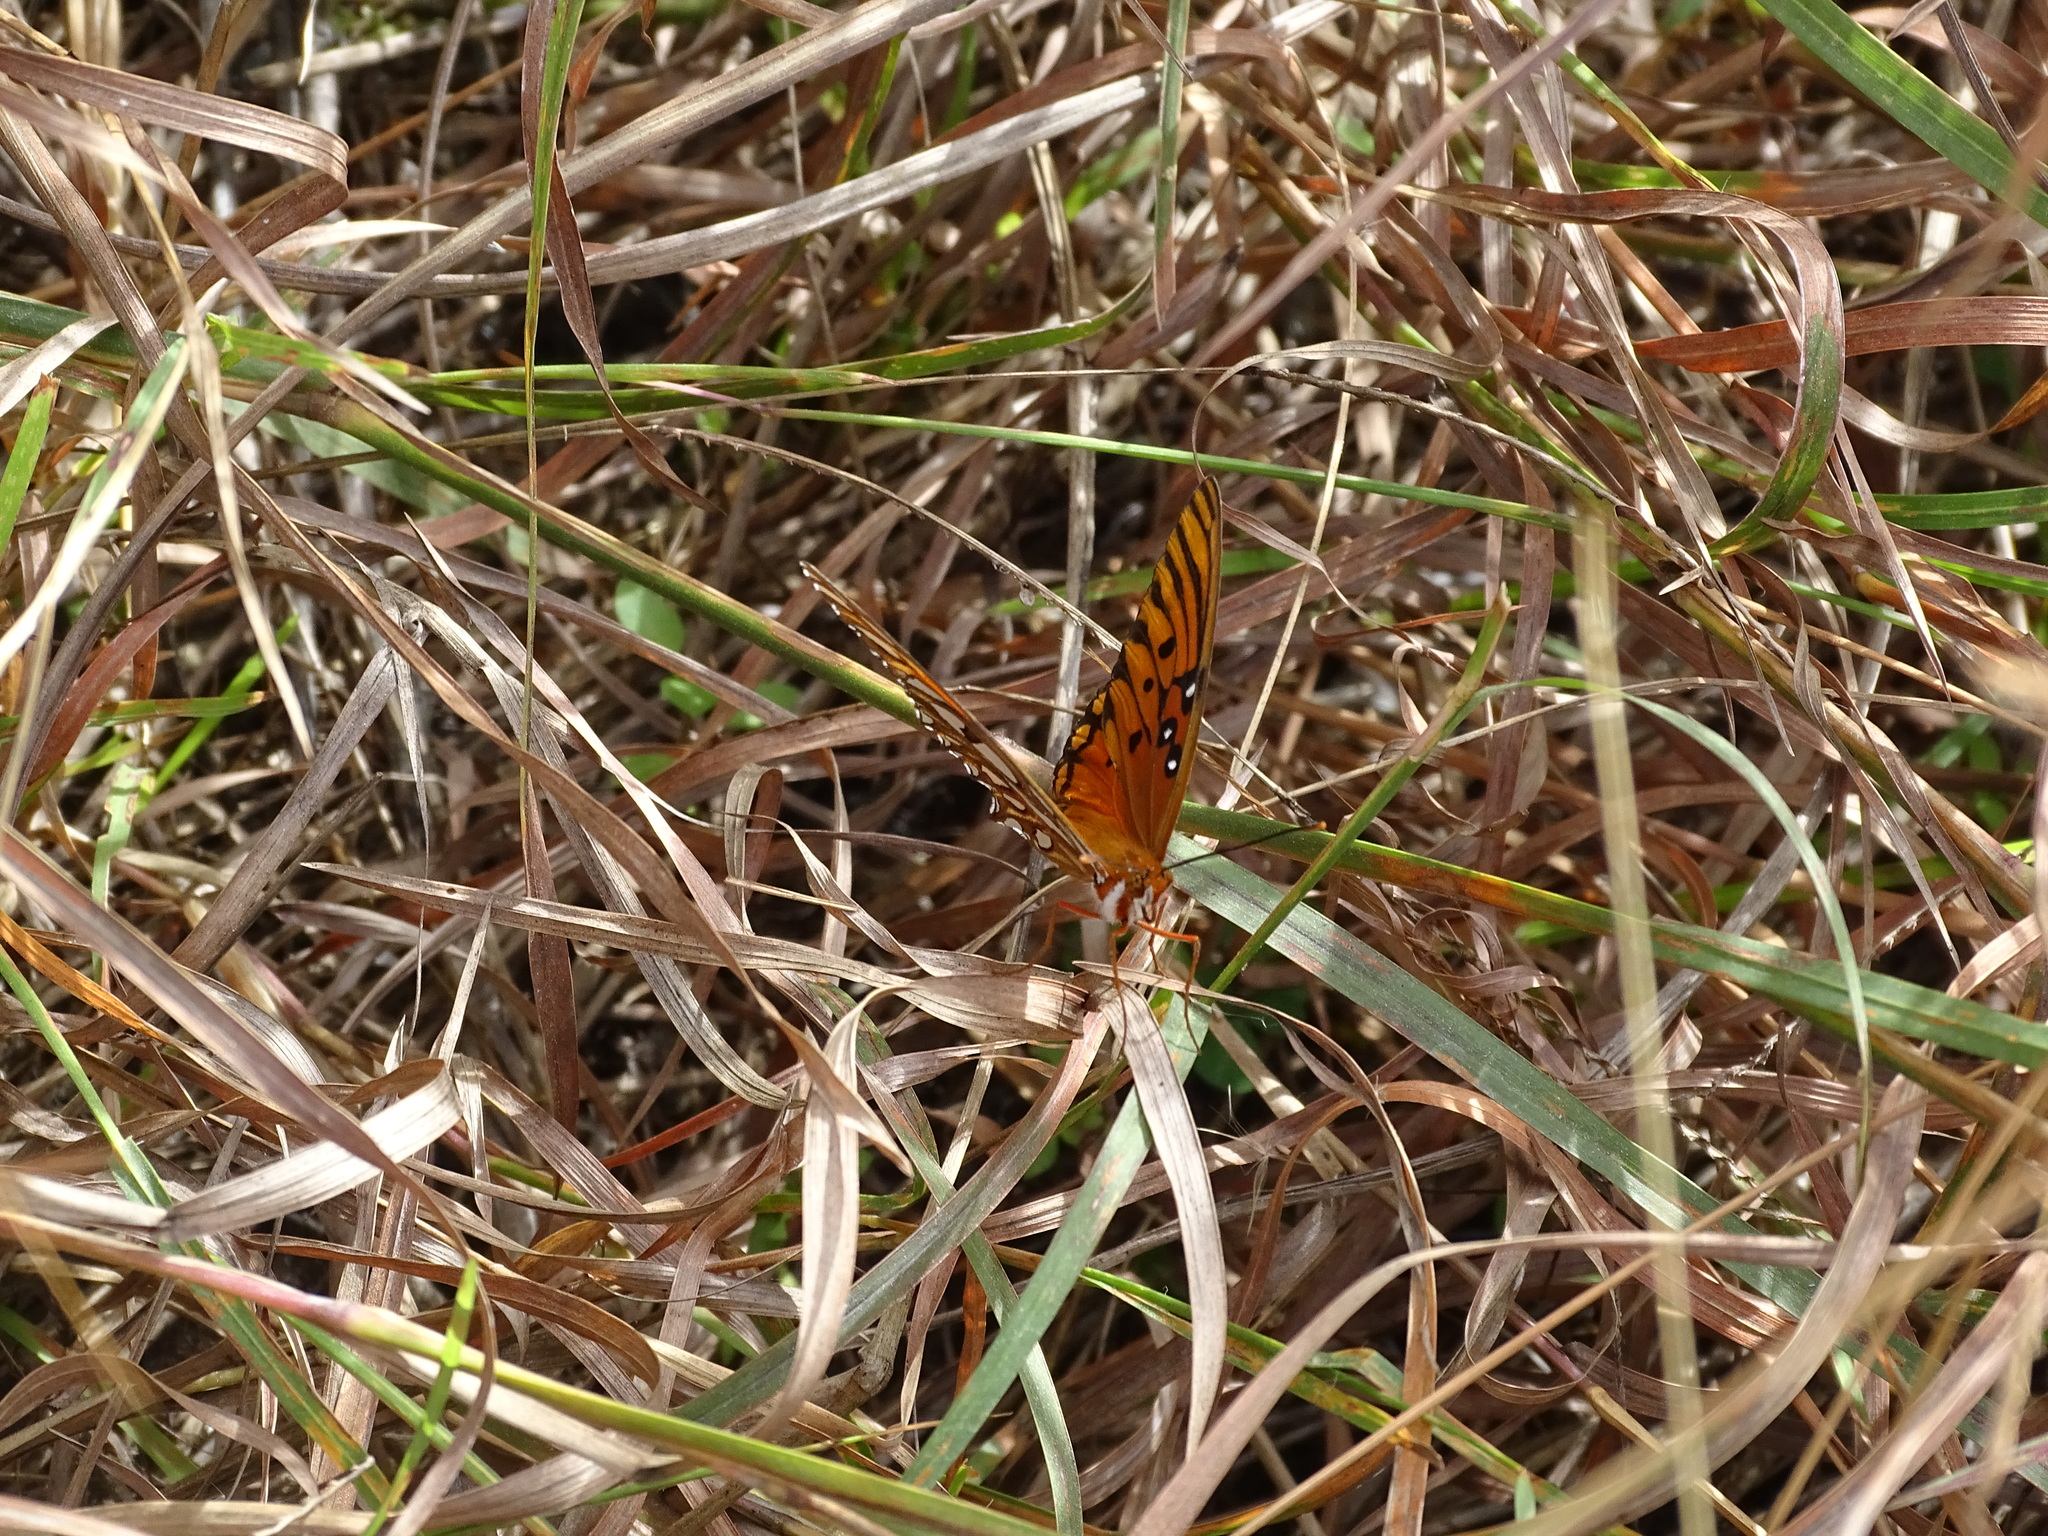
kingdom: Animalia
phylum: Arthropoda
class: Insecta
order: Lepidoptera
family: Nymphalidae
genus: Dione
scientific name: Dione vanillae
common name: Gulf fritillary
